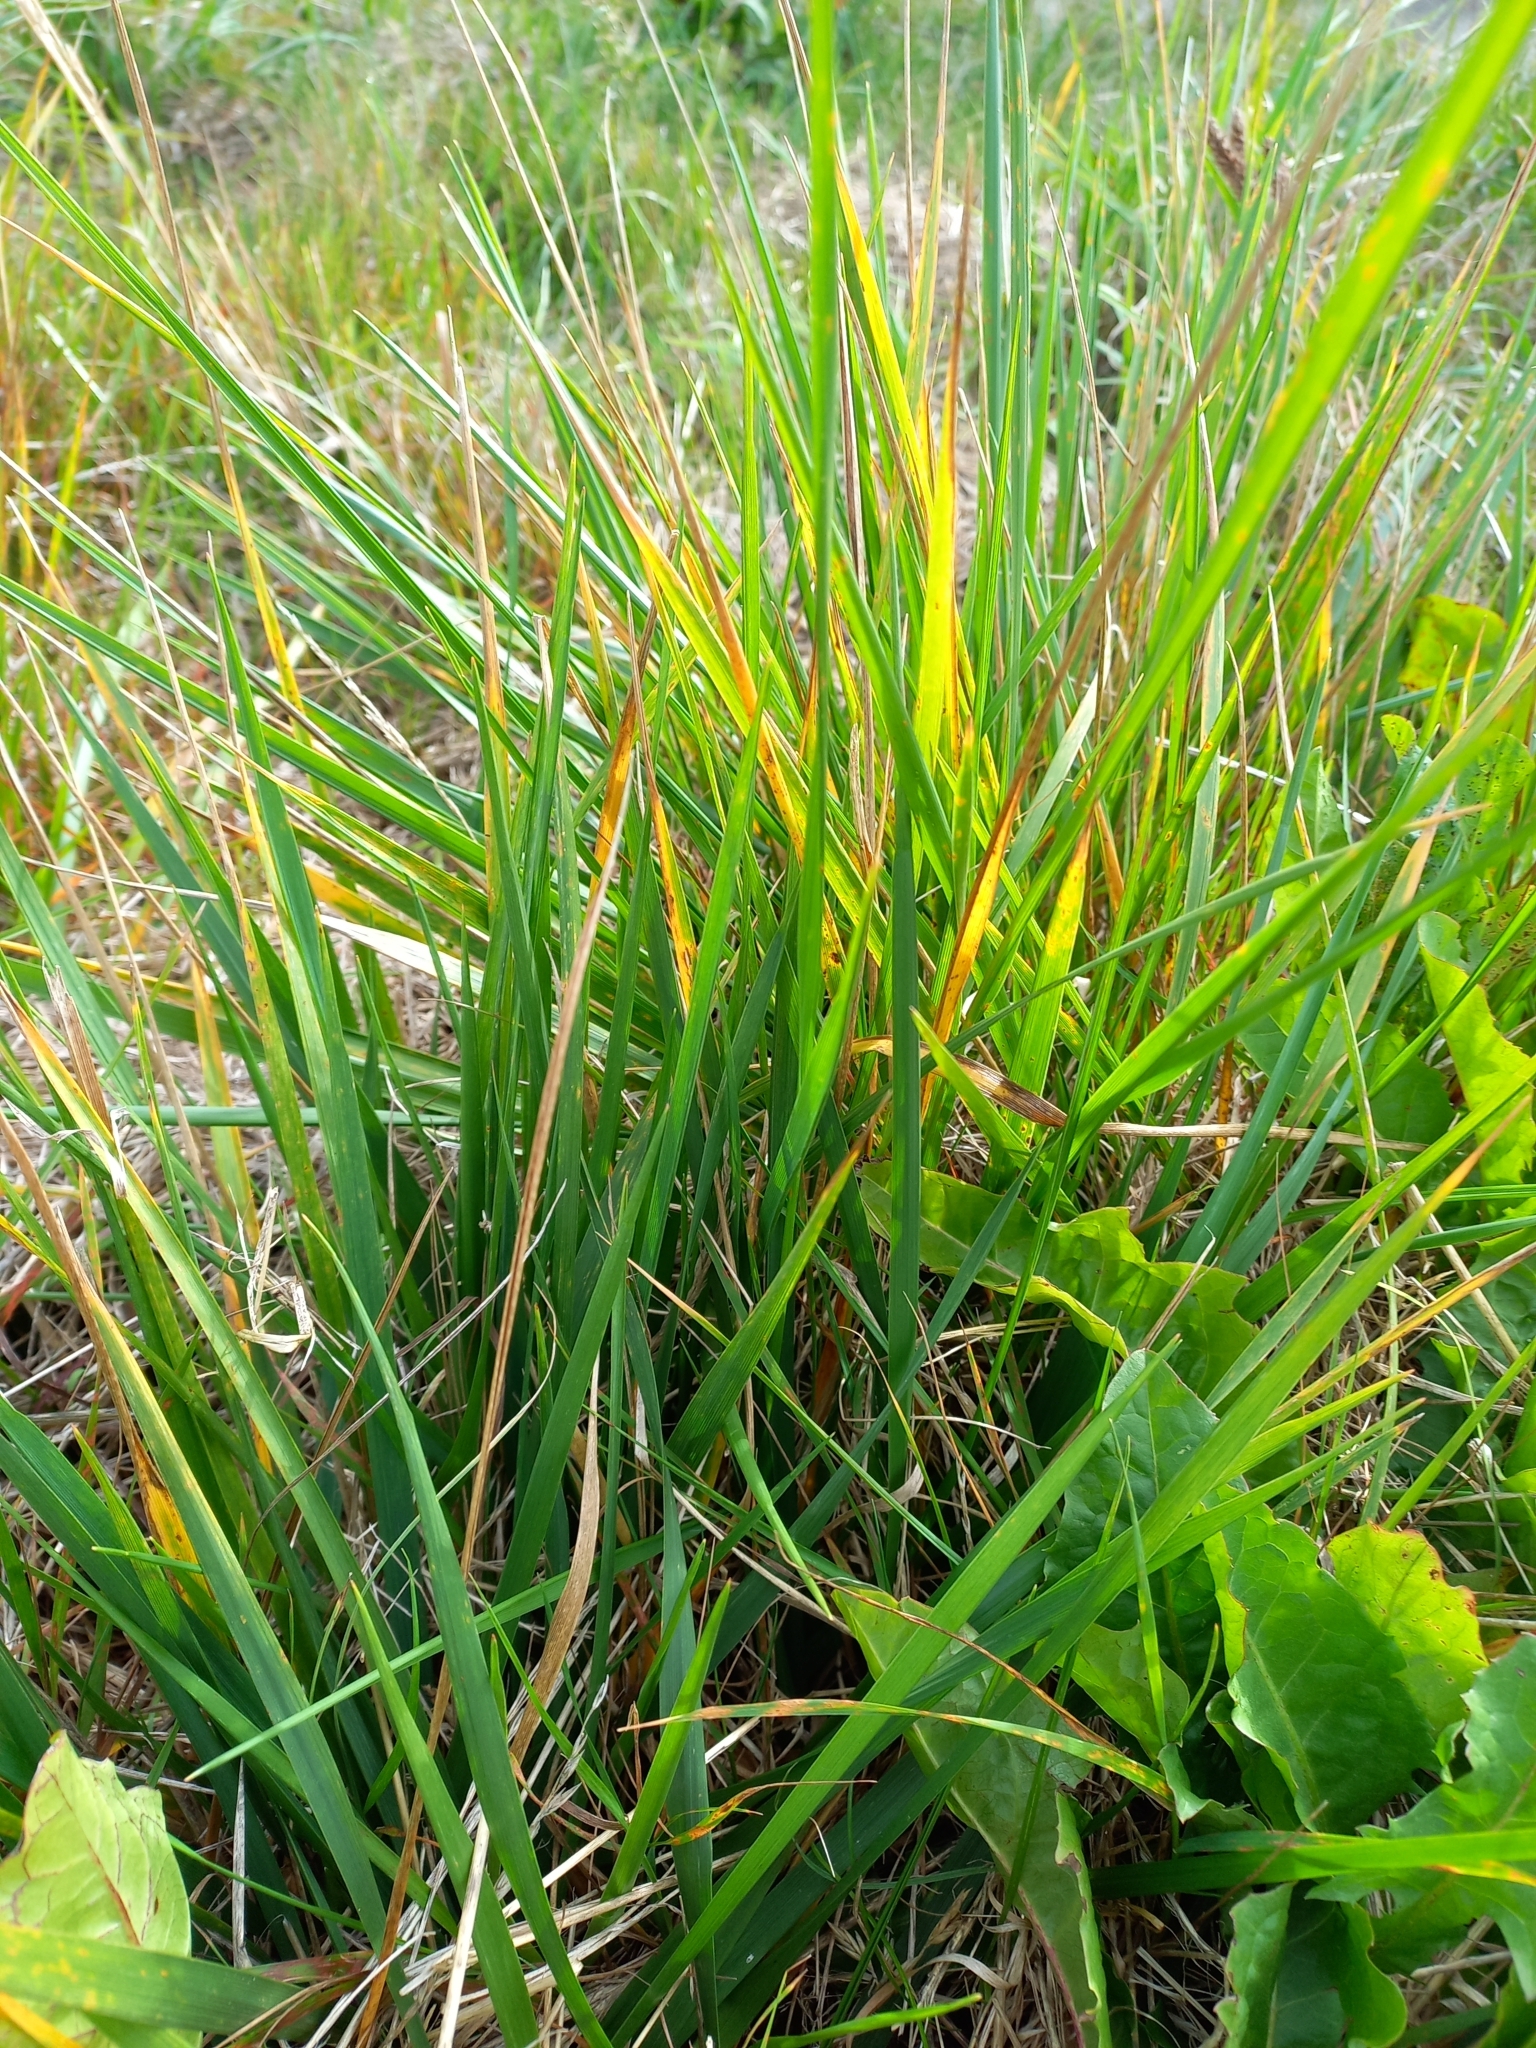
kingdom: Plantae
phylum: Tracheophyta
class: Liliopsida
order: Poales
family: Poaceae
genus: Lolium
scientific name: Lolium arundinaceum
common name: Reed fescue
